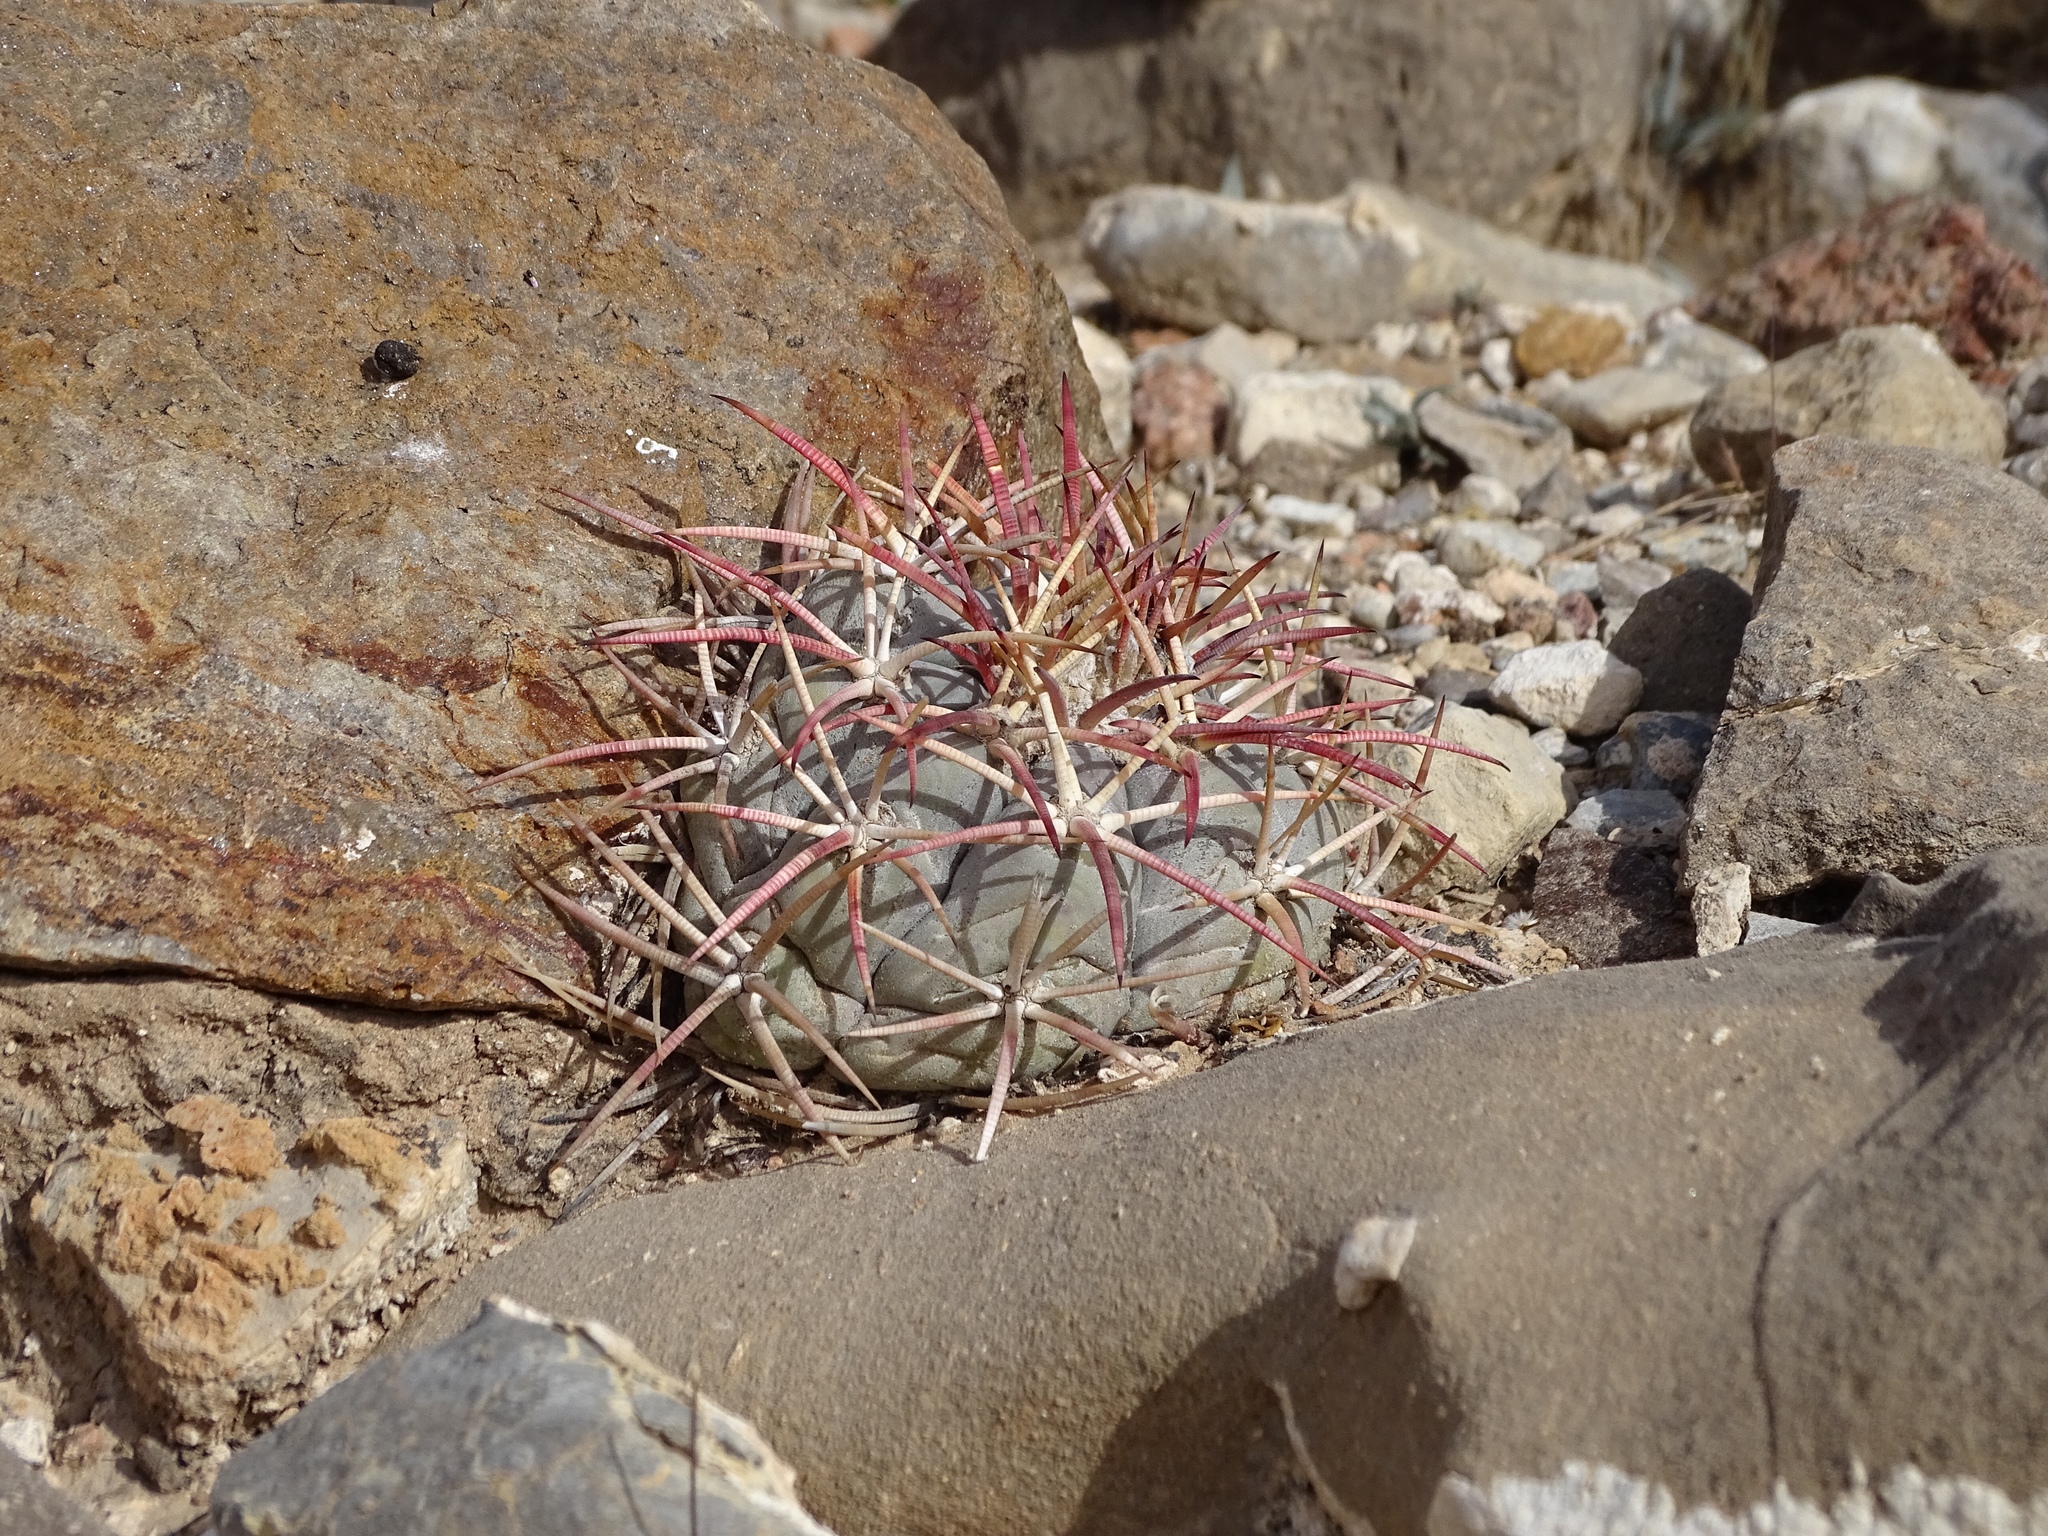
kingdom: Plantae
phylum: Tracheophyta
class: Magnoliopsida
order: Caryophyllales
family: Cactaceae
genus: Echinocactus
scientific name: Echinocactus horizonthalonius
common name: Devilshead
